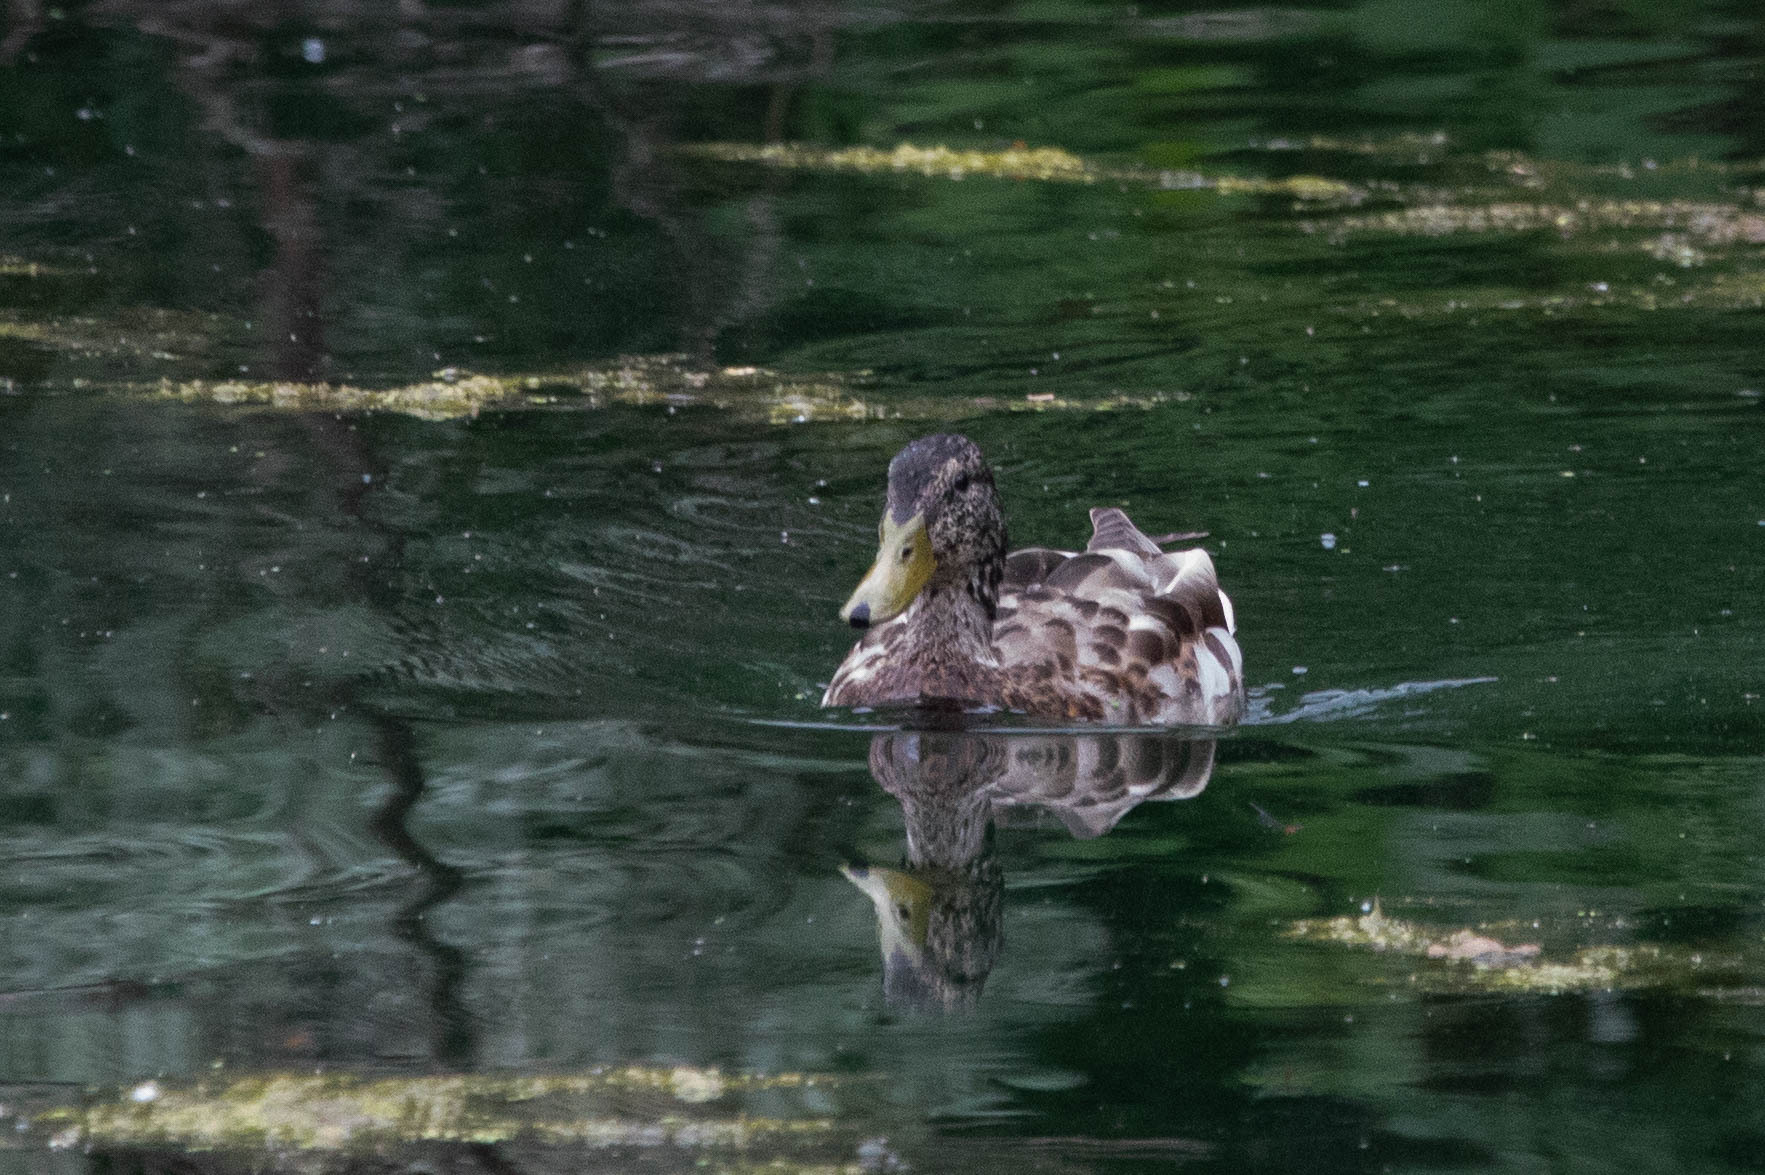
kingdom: Animalia
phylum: Chordata
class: Aves
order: Anseriformes
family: Anatidae
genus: Anas
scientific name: Anas platyrhynchos
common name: Mallard
